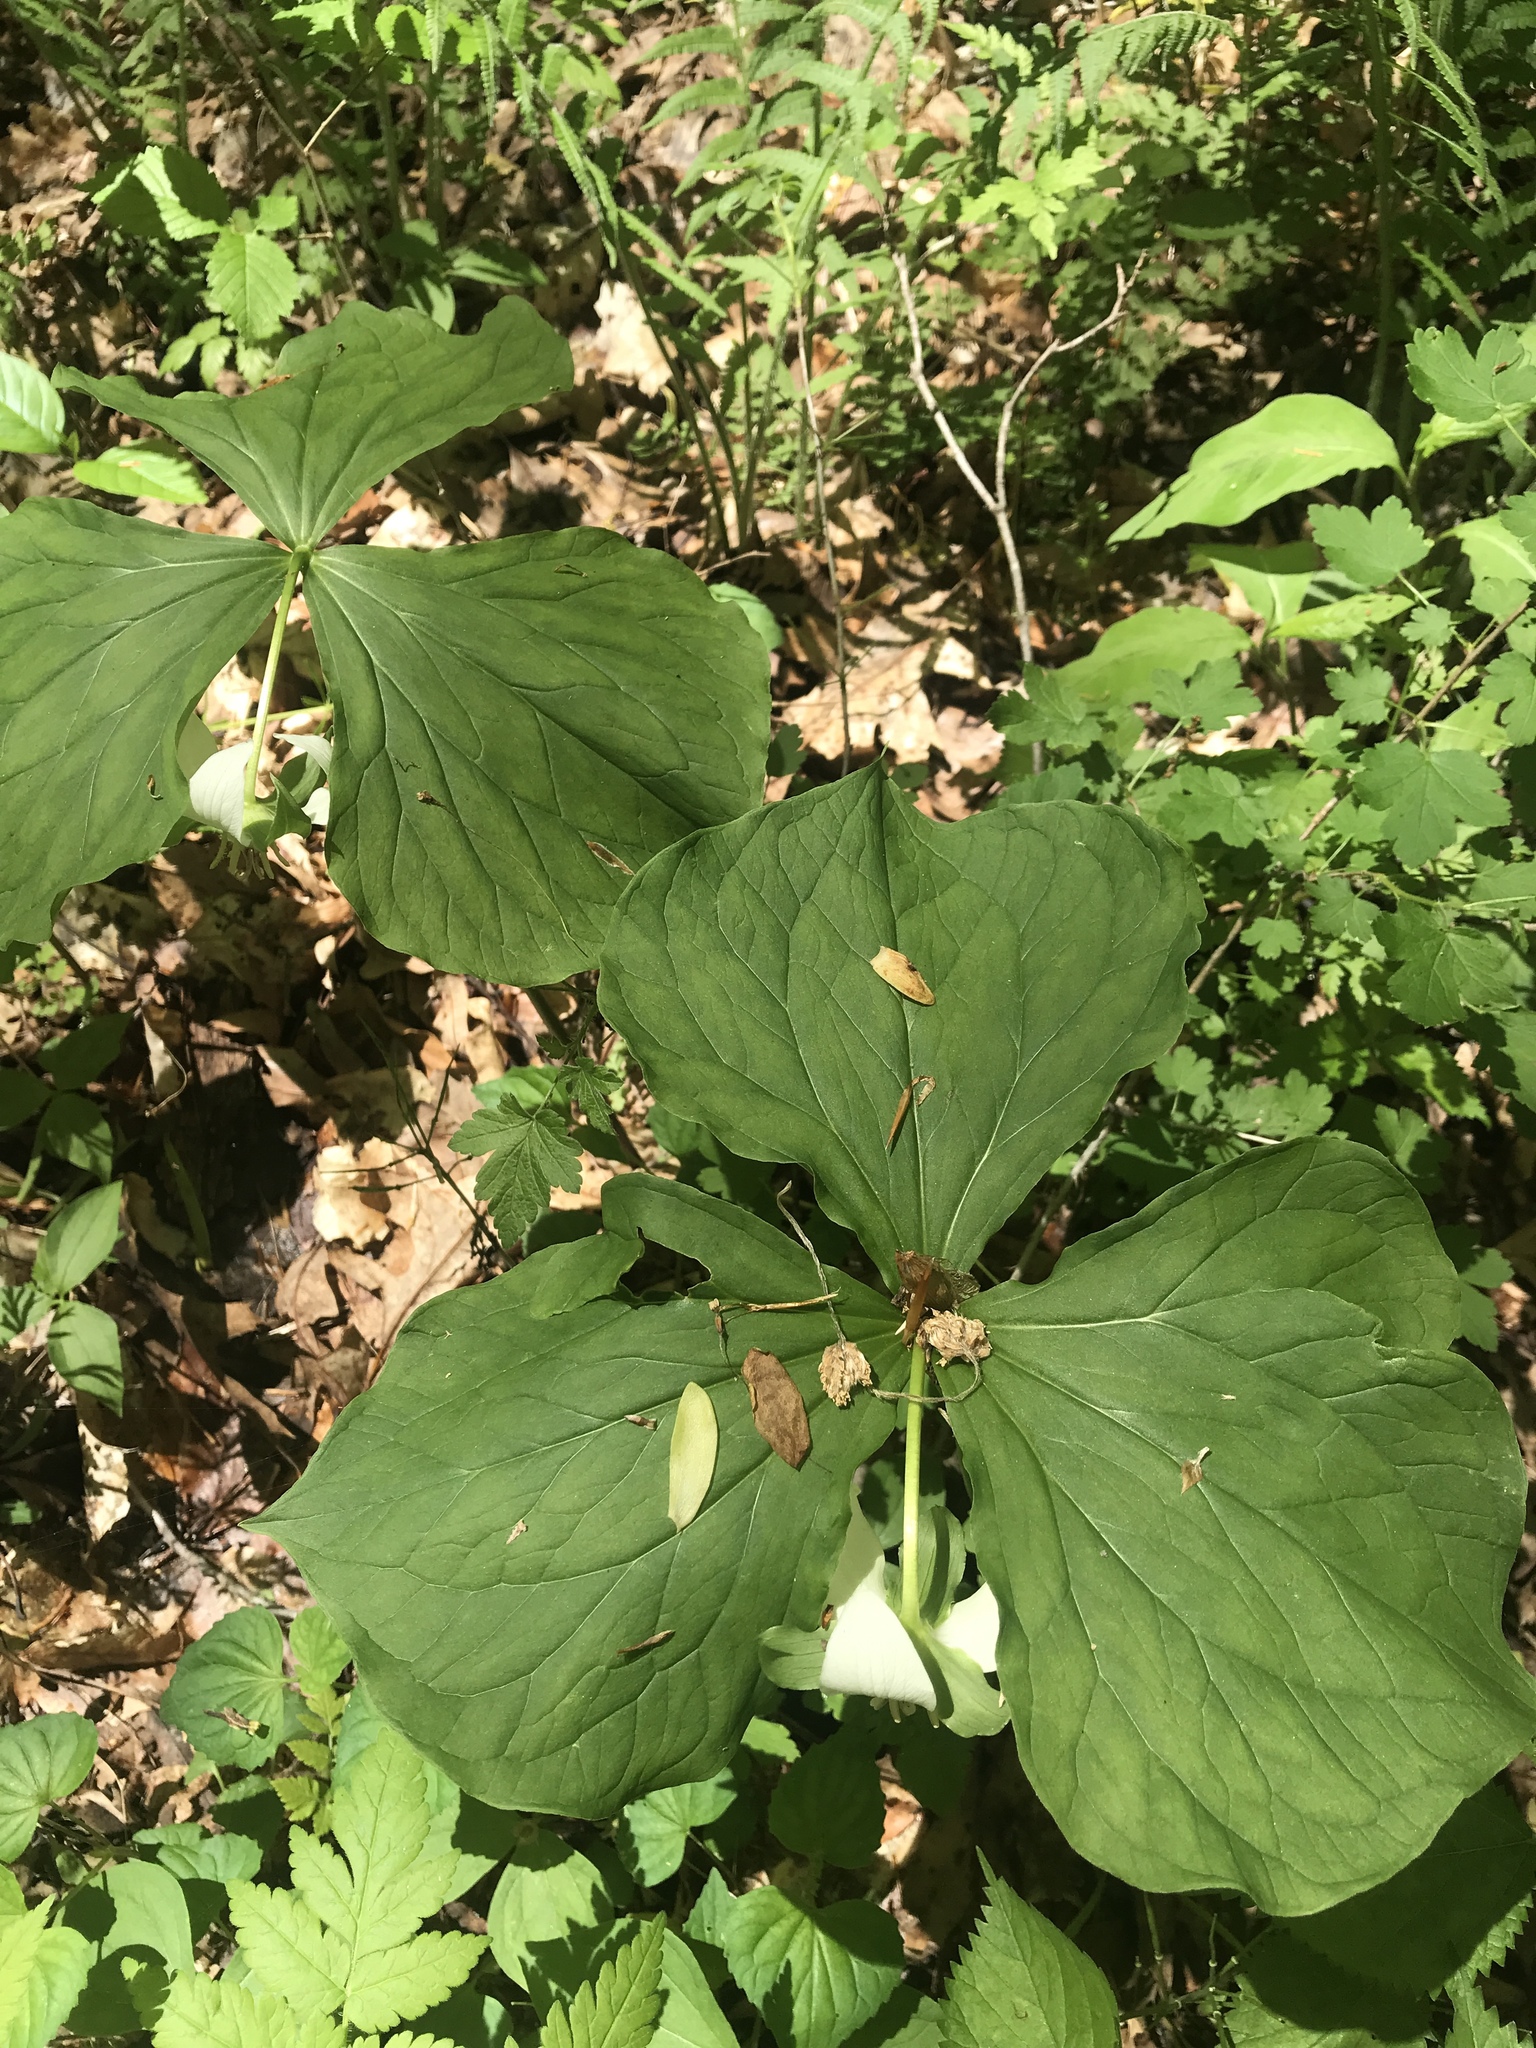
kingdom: Plantae
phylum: Tracheophyta
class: Liliopsida
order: Liliales
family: Melanthiaceae
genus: Trillium
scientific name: Trillium flexipes
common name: Drooping trillium
